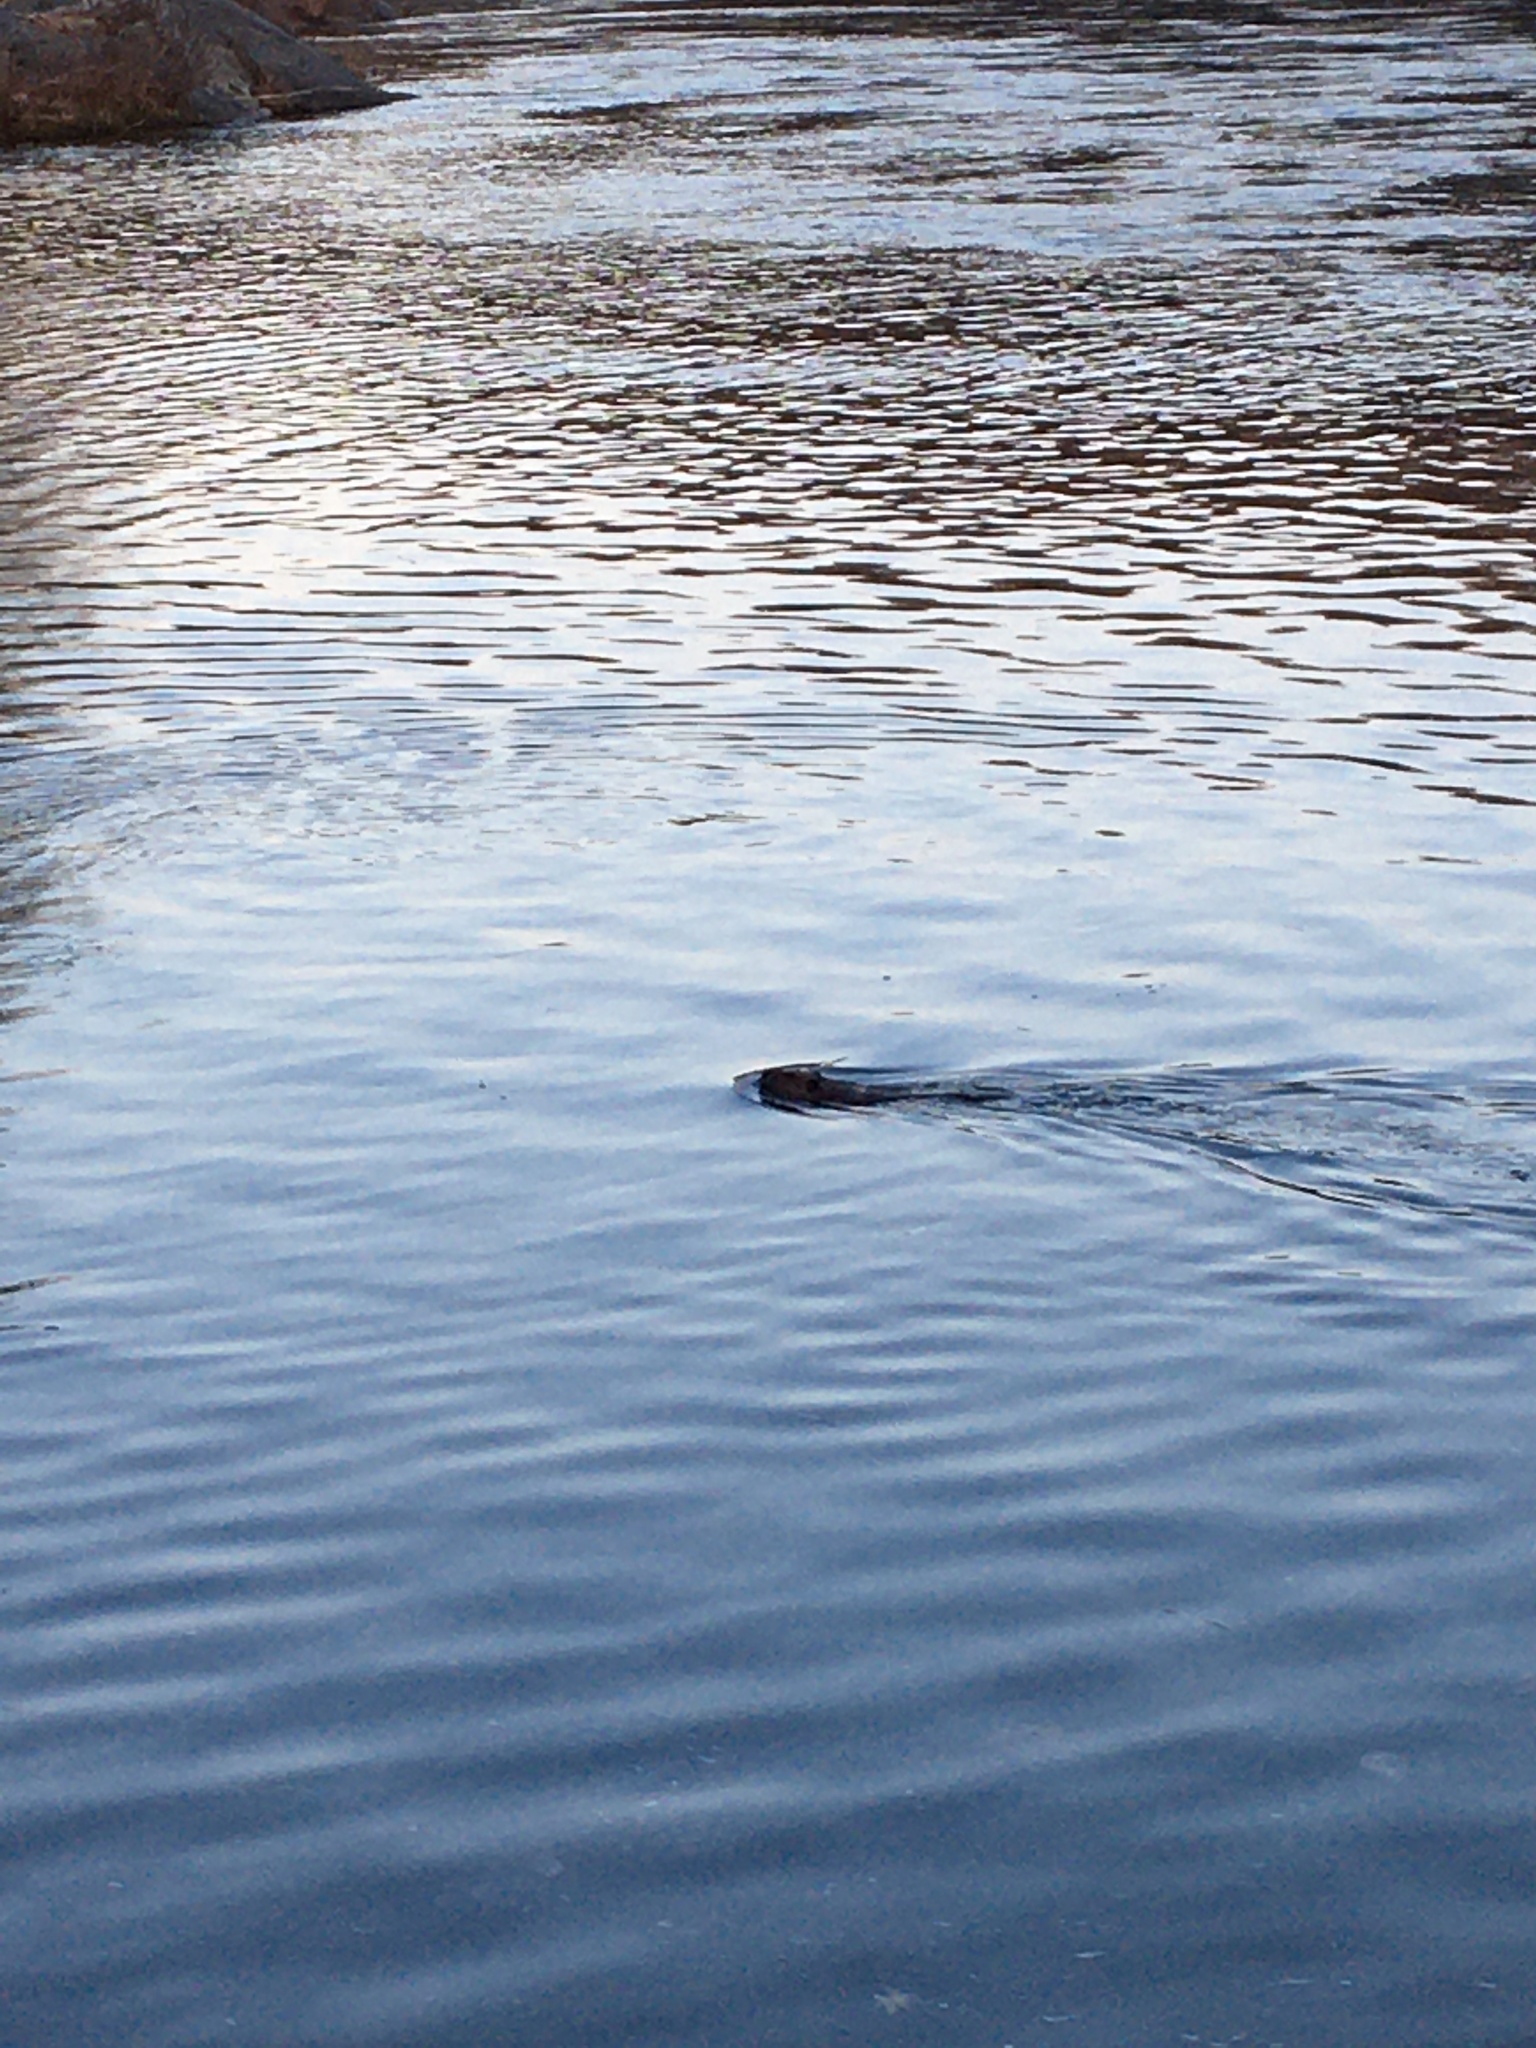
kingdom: Animalia
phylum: Chordata
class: Mammalia
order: Rodentia
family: Castoridae
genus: Castor
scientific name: Castor canadensis
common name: American beaver
